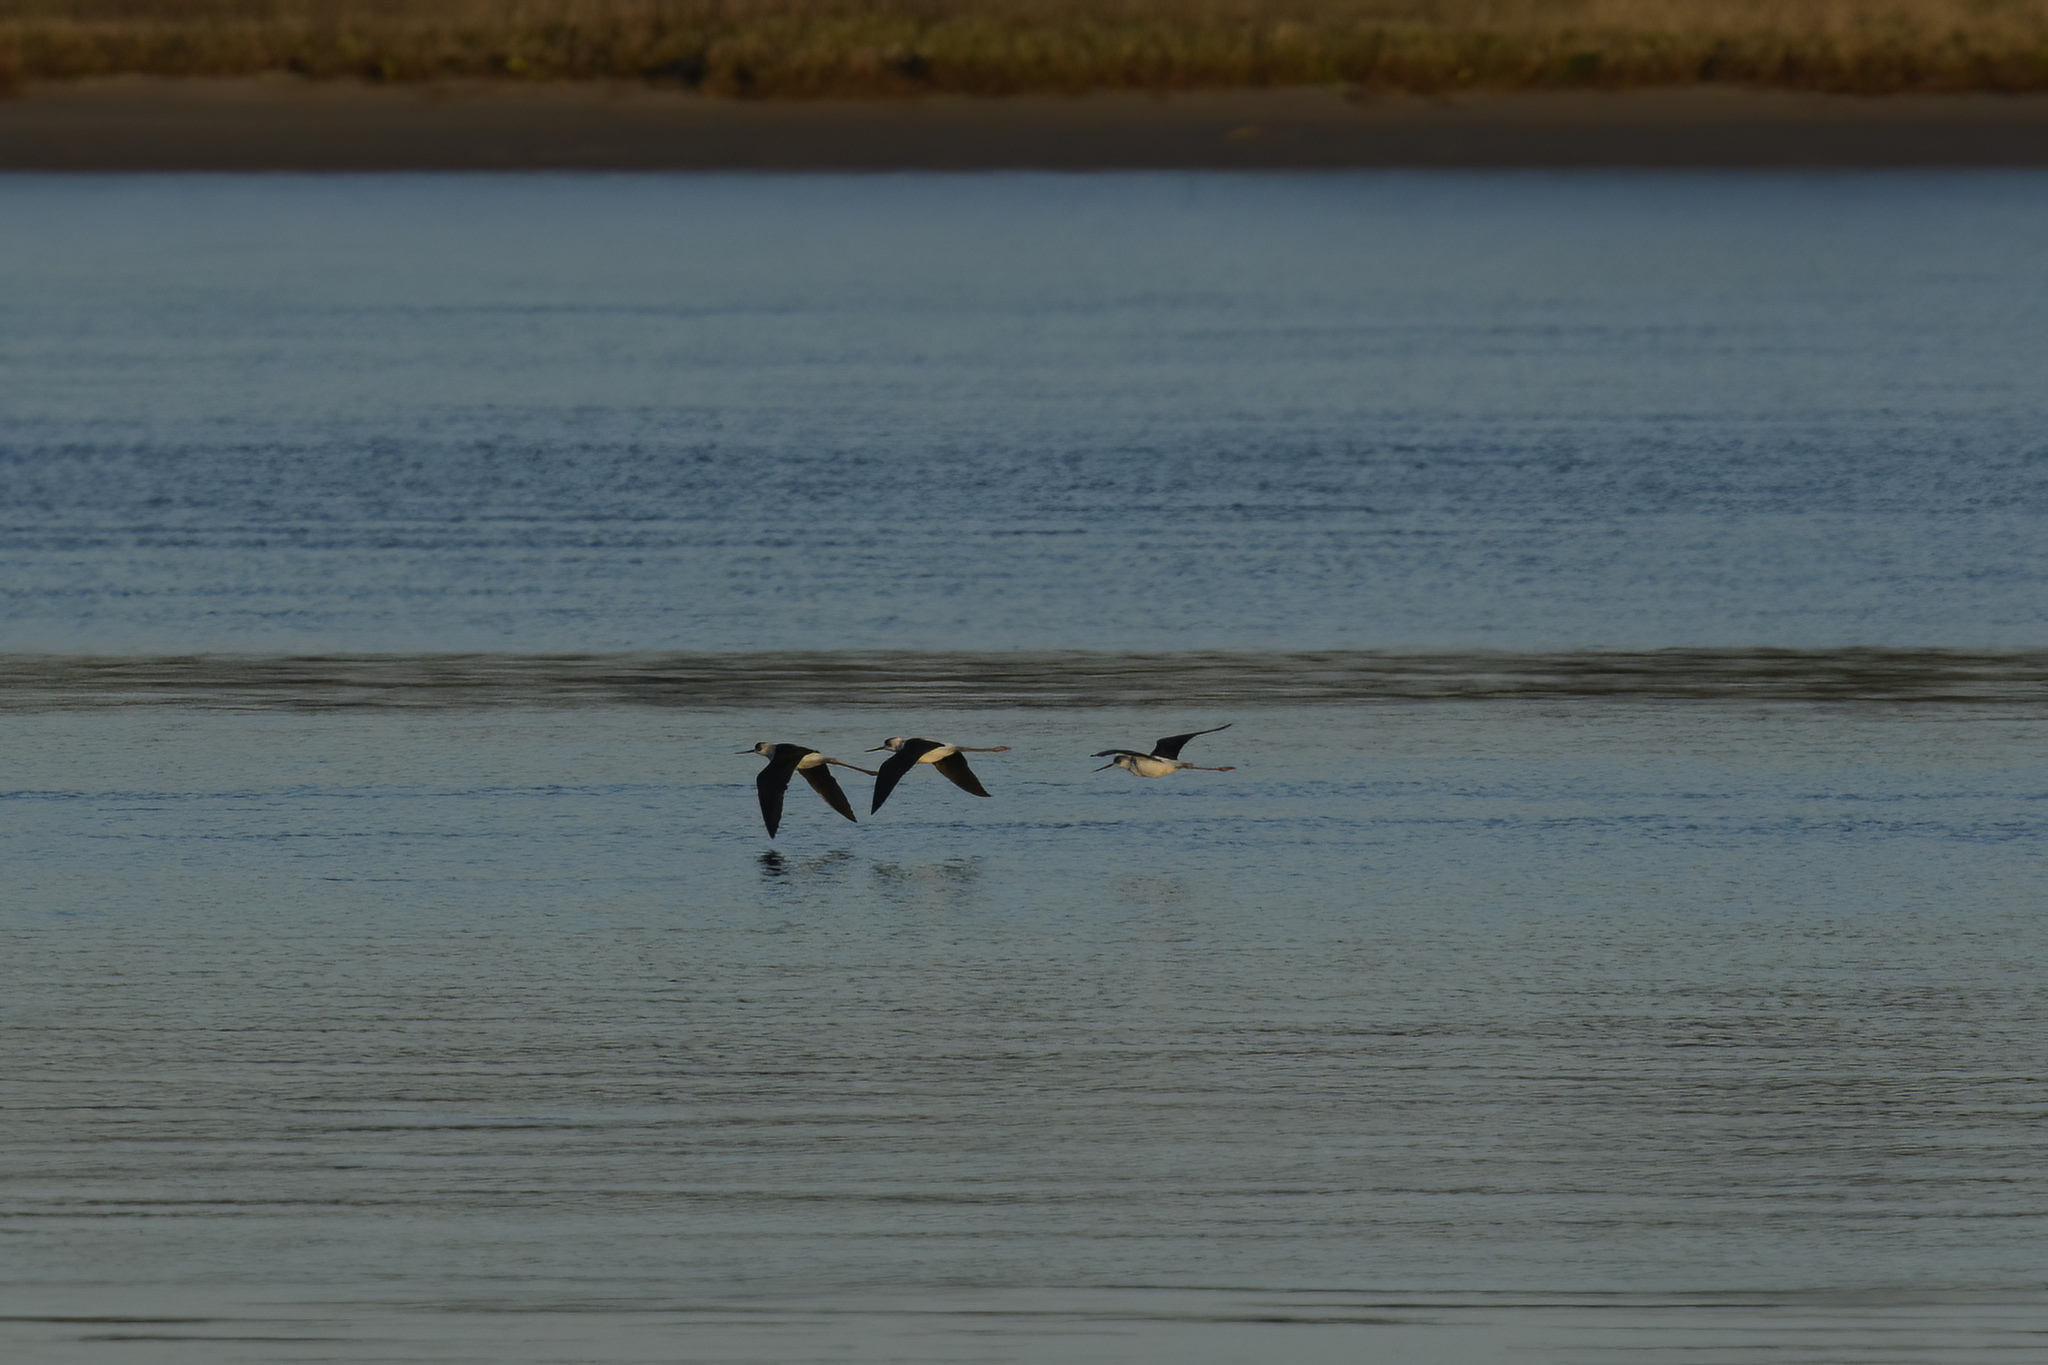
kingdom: Animalia
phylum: Chordata
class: Aves
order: Charadriiformes
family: Recurvirostridae
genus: Himantopus
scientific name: Himantopus leucocephalus
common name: White-headed stilt
